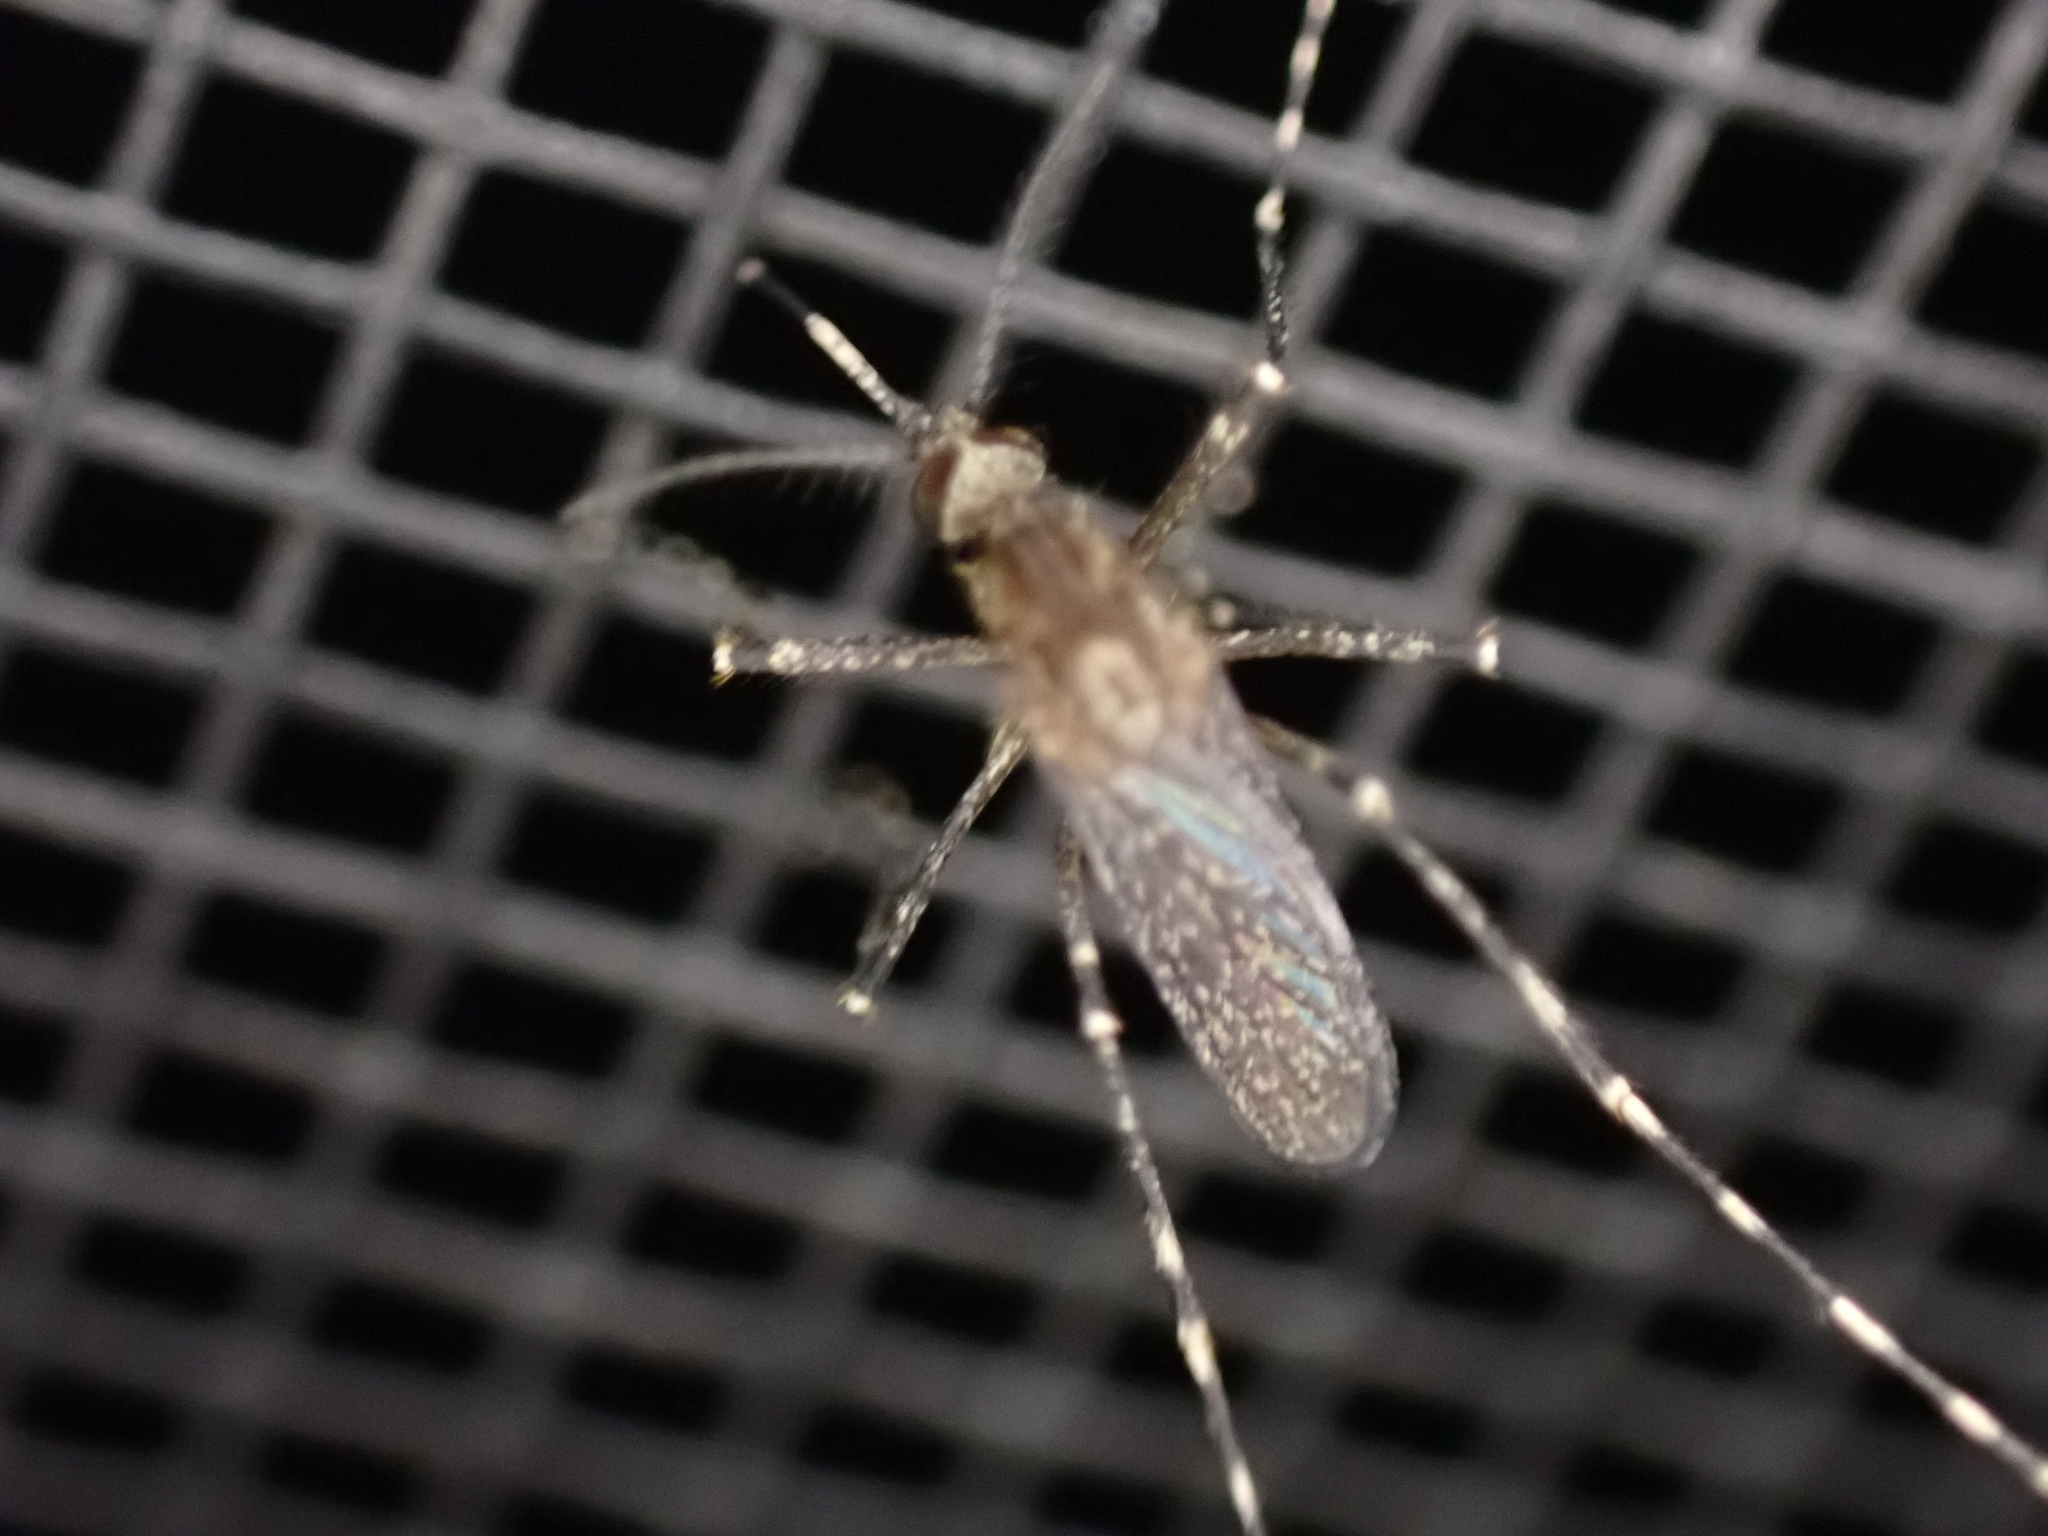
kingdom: Animalia
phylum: Arthropoda
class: Insecta
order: Diptera
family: Culicidae
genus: Coquillettidia
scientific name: Coquillettidia perturbans
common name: Cattail mosquito
